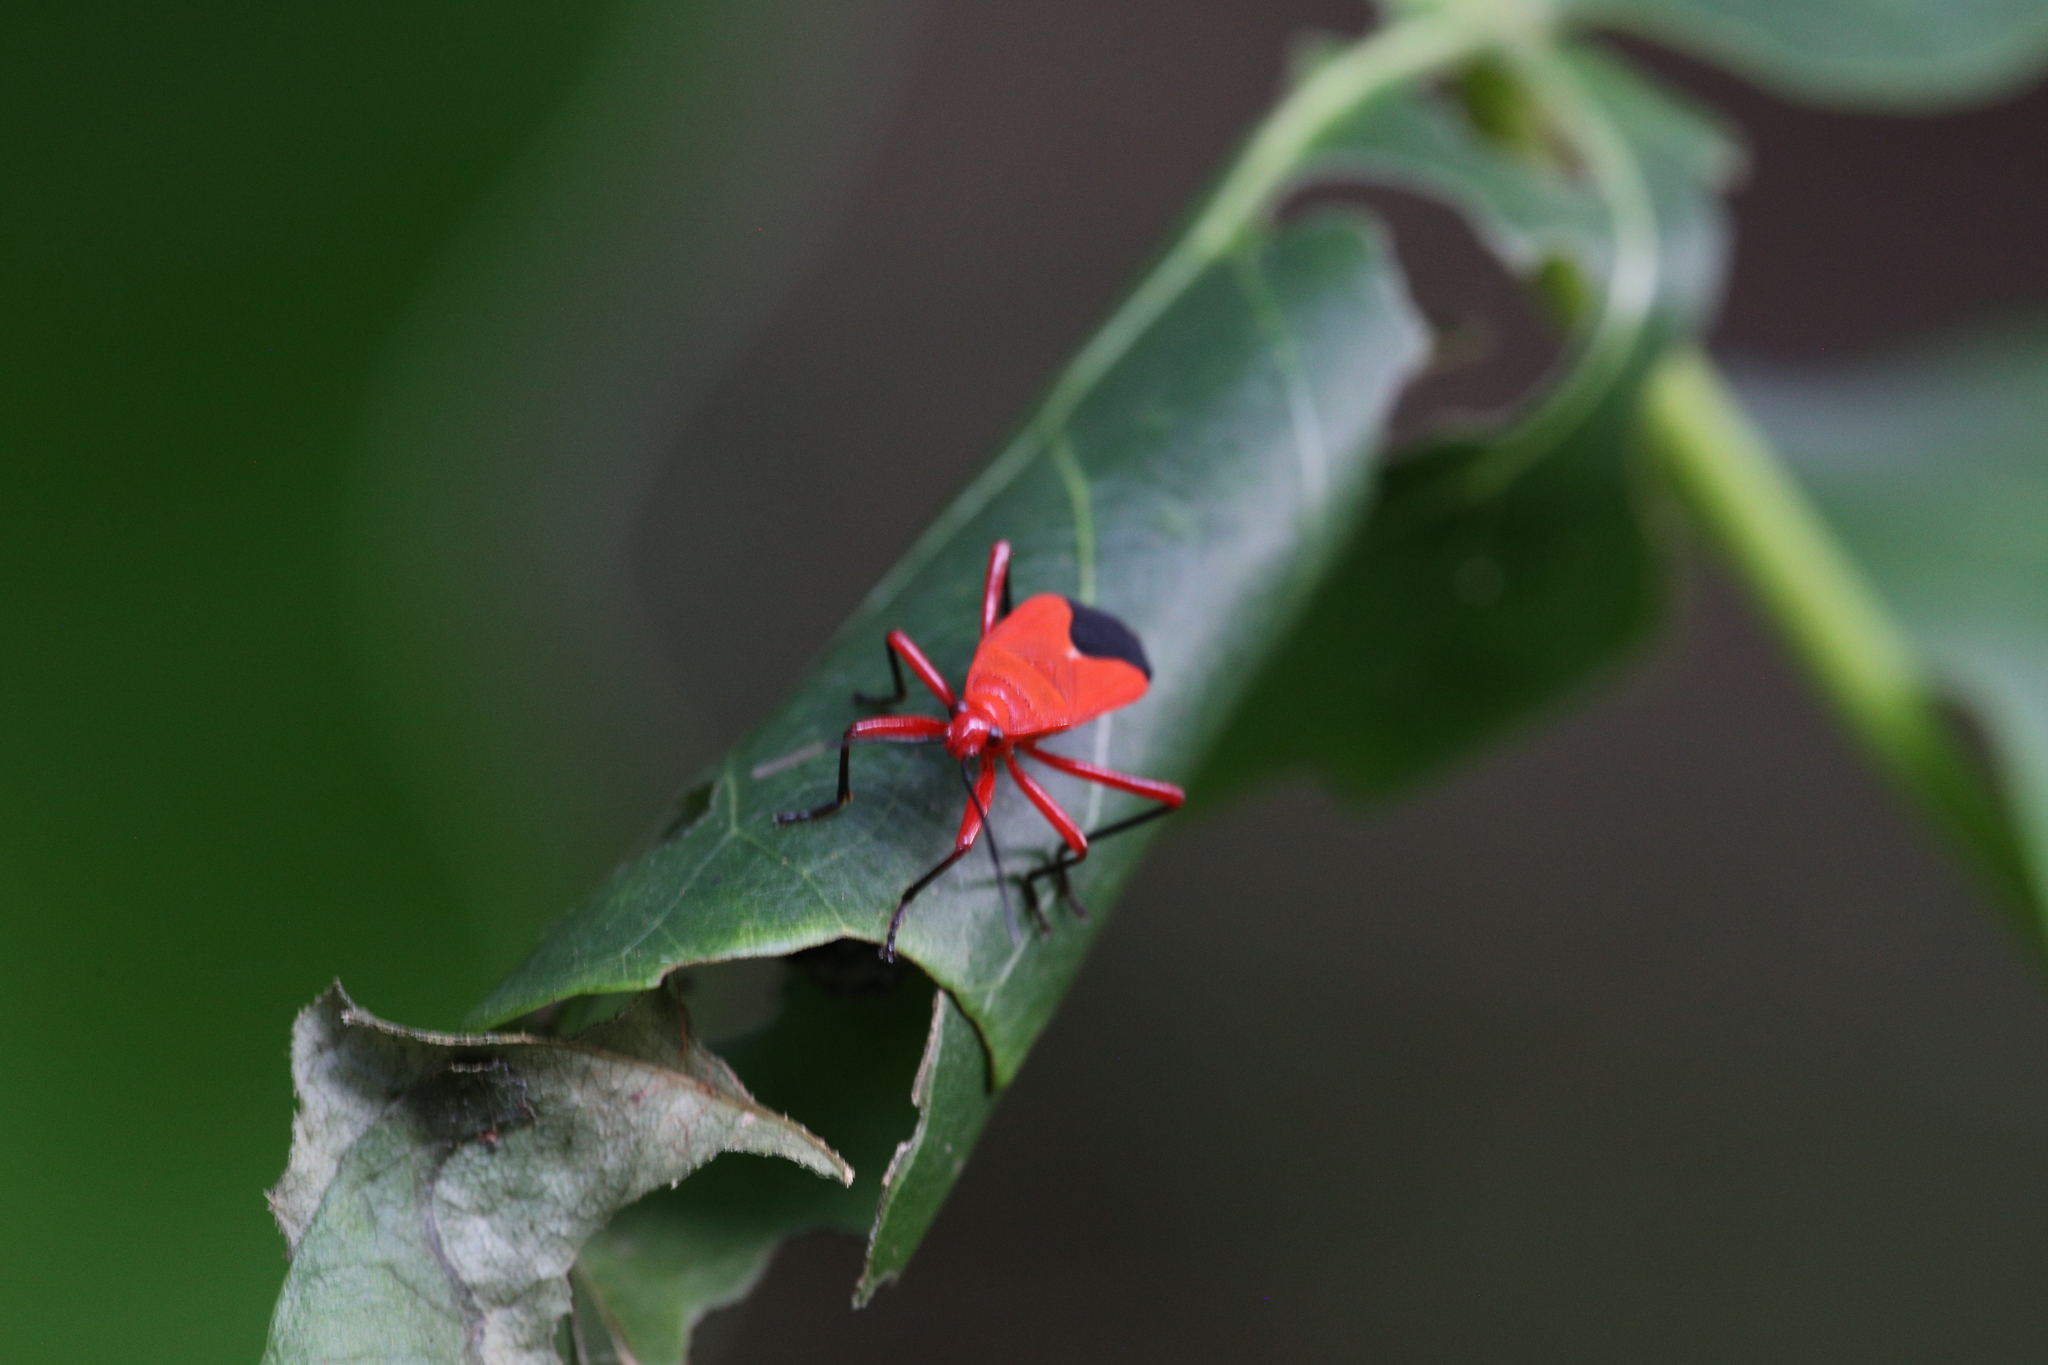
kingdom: Animalia
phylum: Arthropoda
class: Insecta
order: Hemiptera
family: Pyrrhocoridae
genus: Antilochus
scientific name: Antilochus coquebertii
